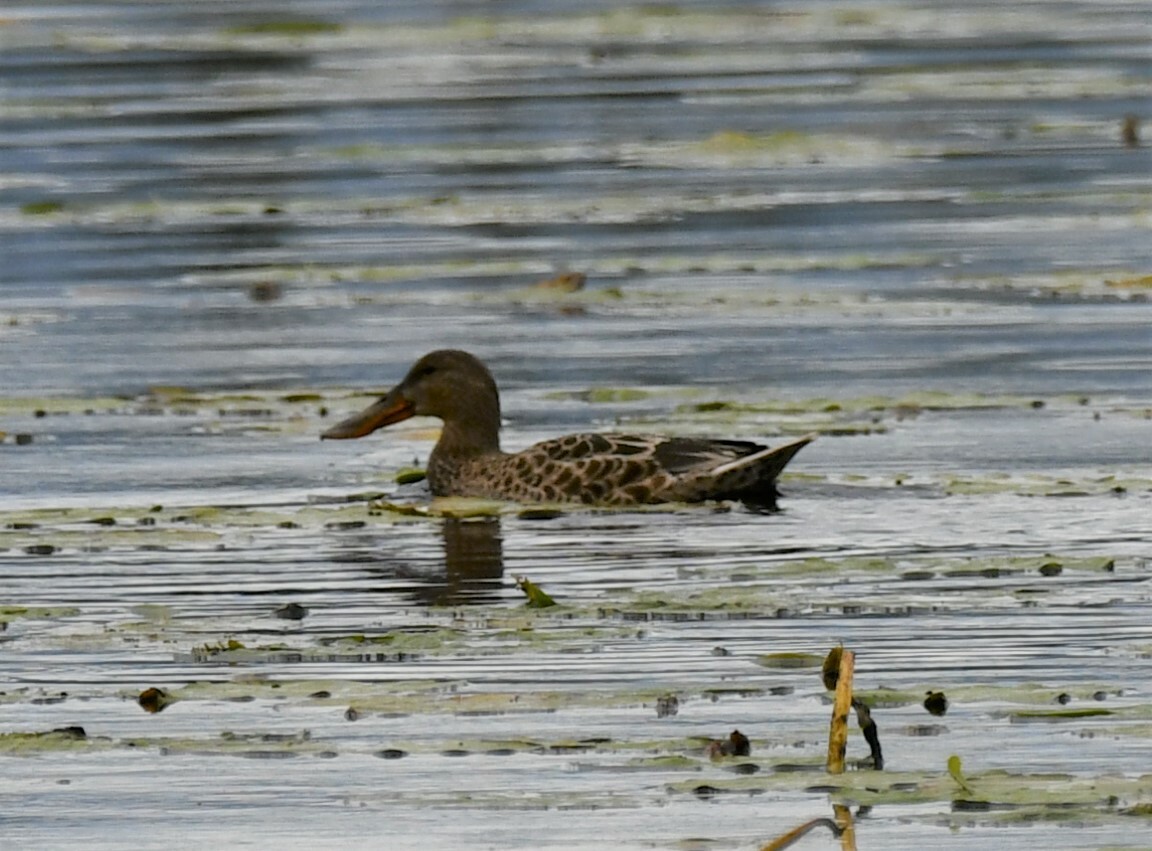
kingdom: Animalia
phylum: Chordata
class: Aves
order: Anseriformes
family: Anatidae
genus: Spatula
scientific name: Spatula clypeata
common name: Northern shoveler
